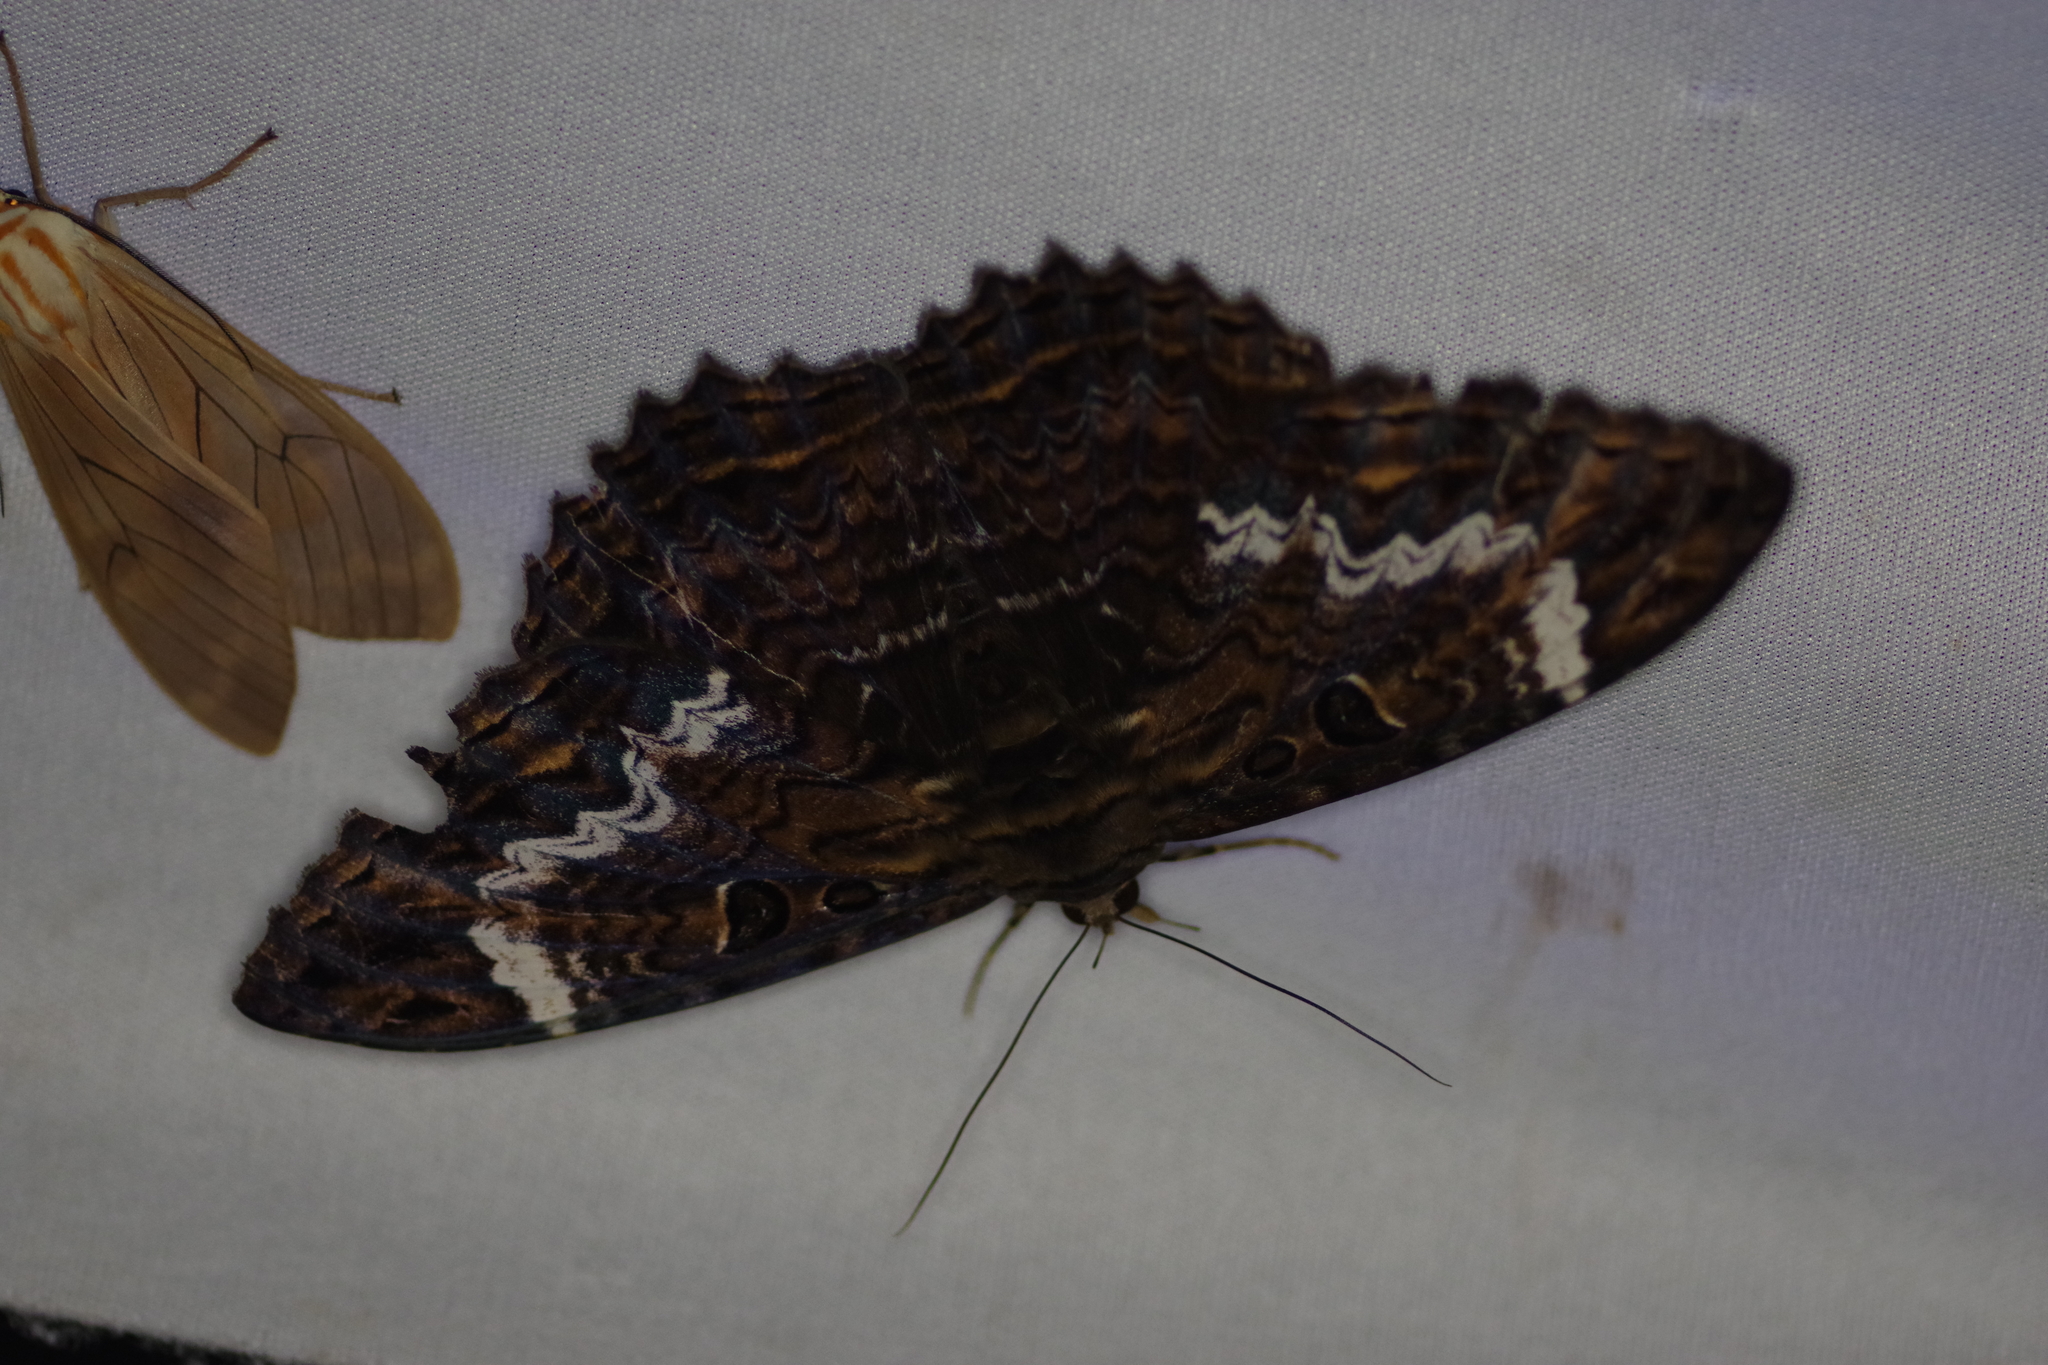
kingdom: Animalia
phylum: Arthropoda
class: Insecta
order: Lepidoptera
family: Erebidae
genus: Feigeria
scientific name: Feigeria
